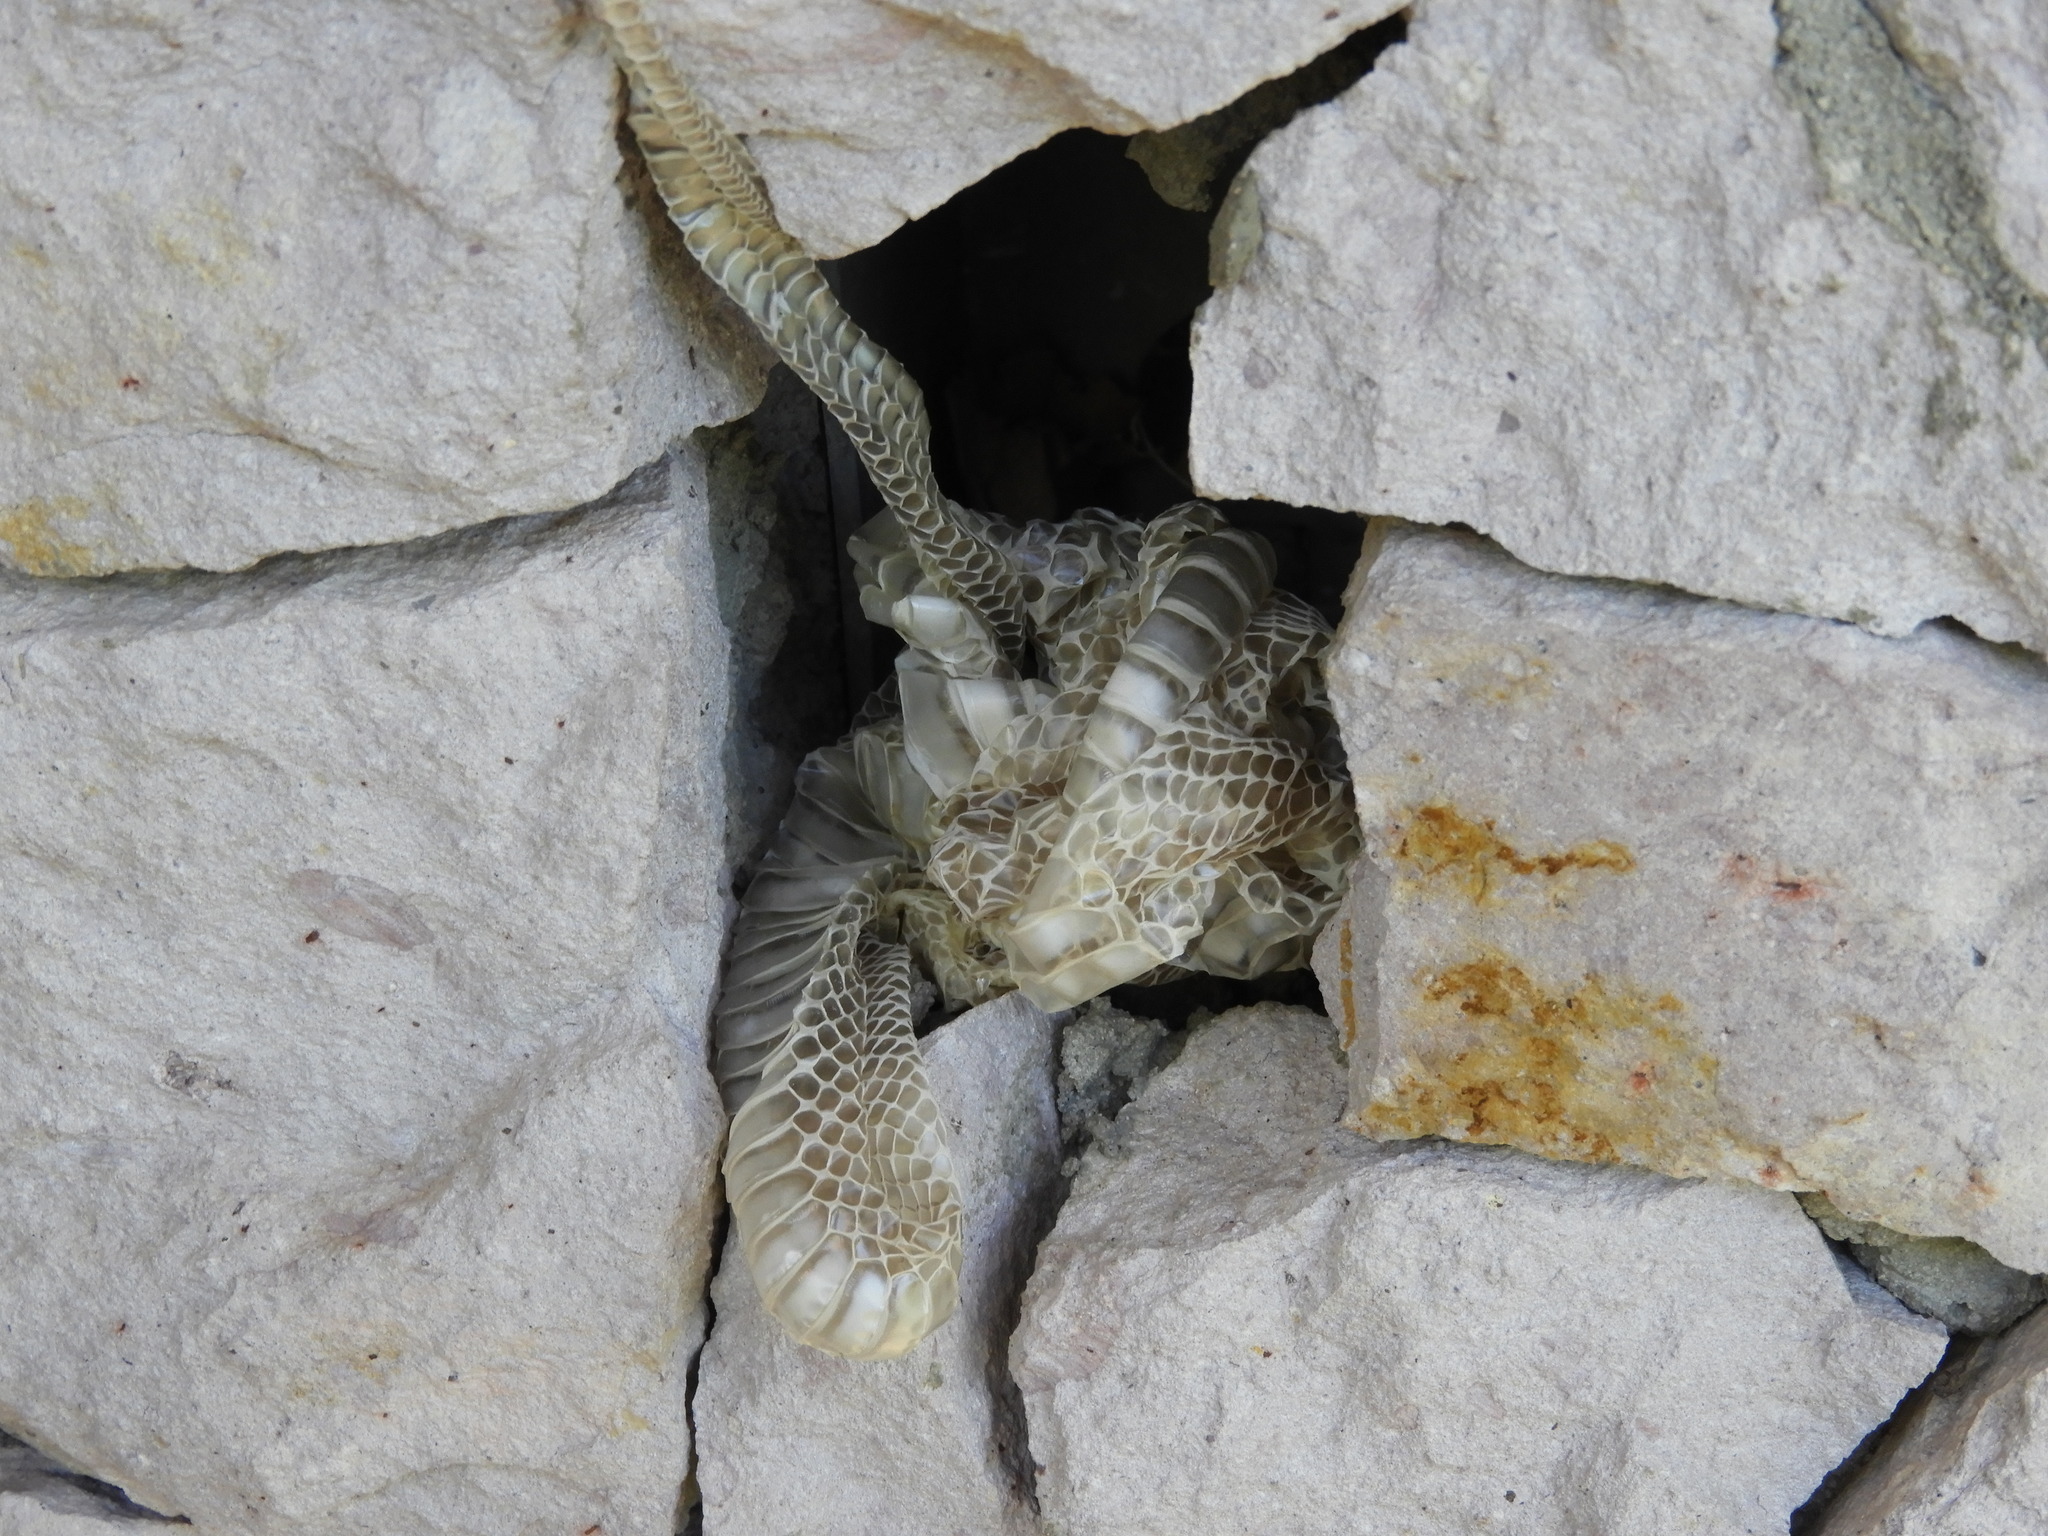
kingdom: Animalia
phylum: Chordata
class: Squamata
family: Colubridae
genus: Trimorphodon
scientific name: Trimorphodon paucimaculatus
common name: Sinaloan lyresnake
